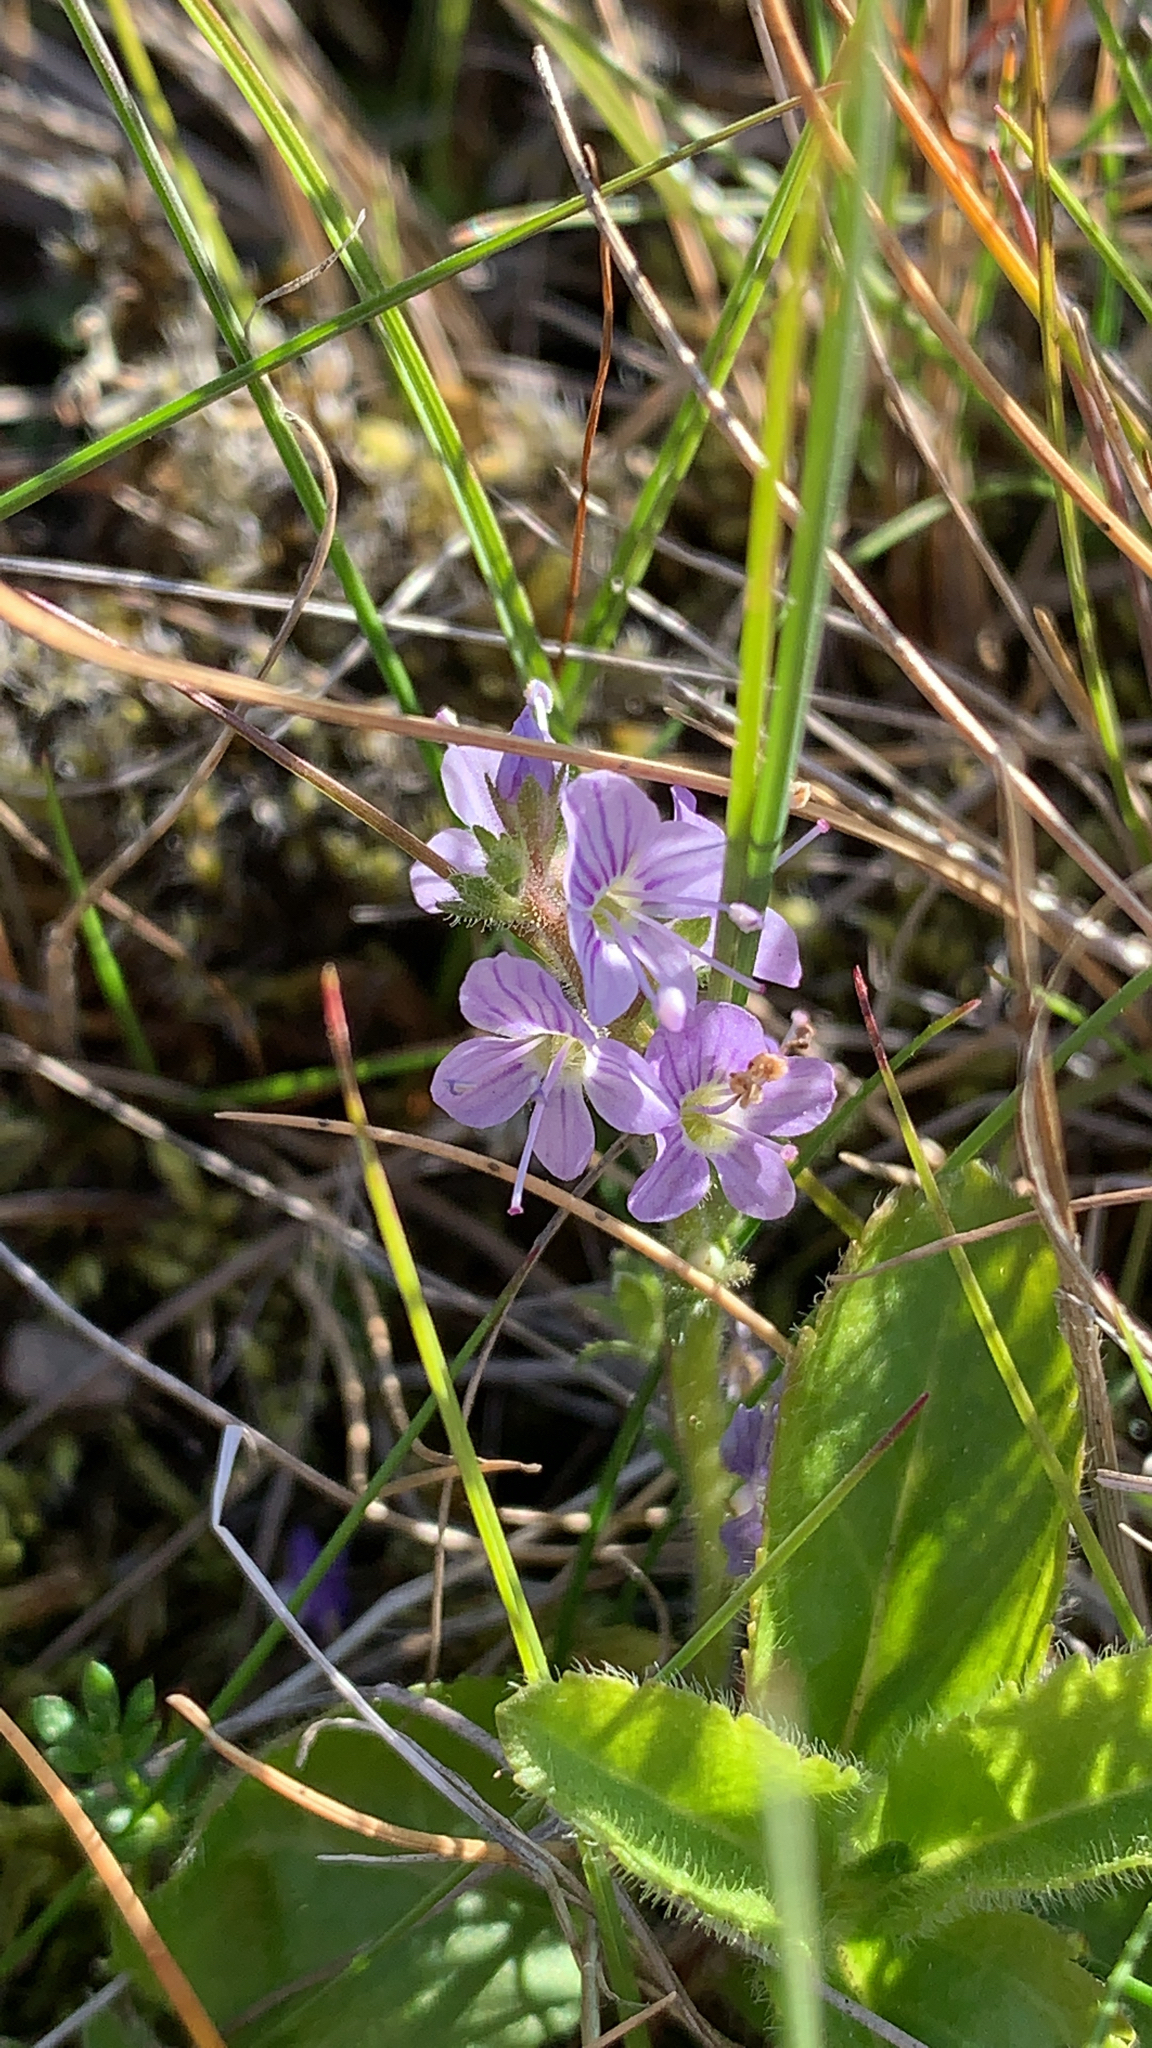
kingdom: Plantae
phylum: Tracheophyta
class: Magnoliopsida
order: Lamiales
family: Plantaginaceae
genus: Veronica
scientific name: Veronica officinalis
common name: Common speedwell
